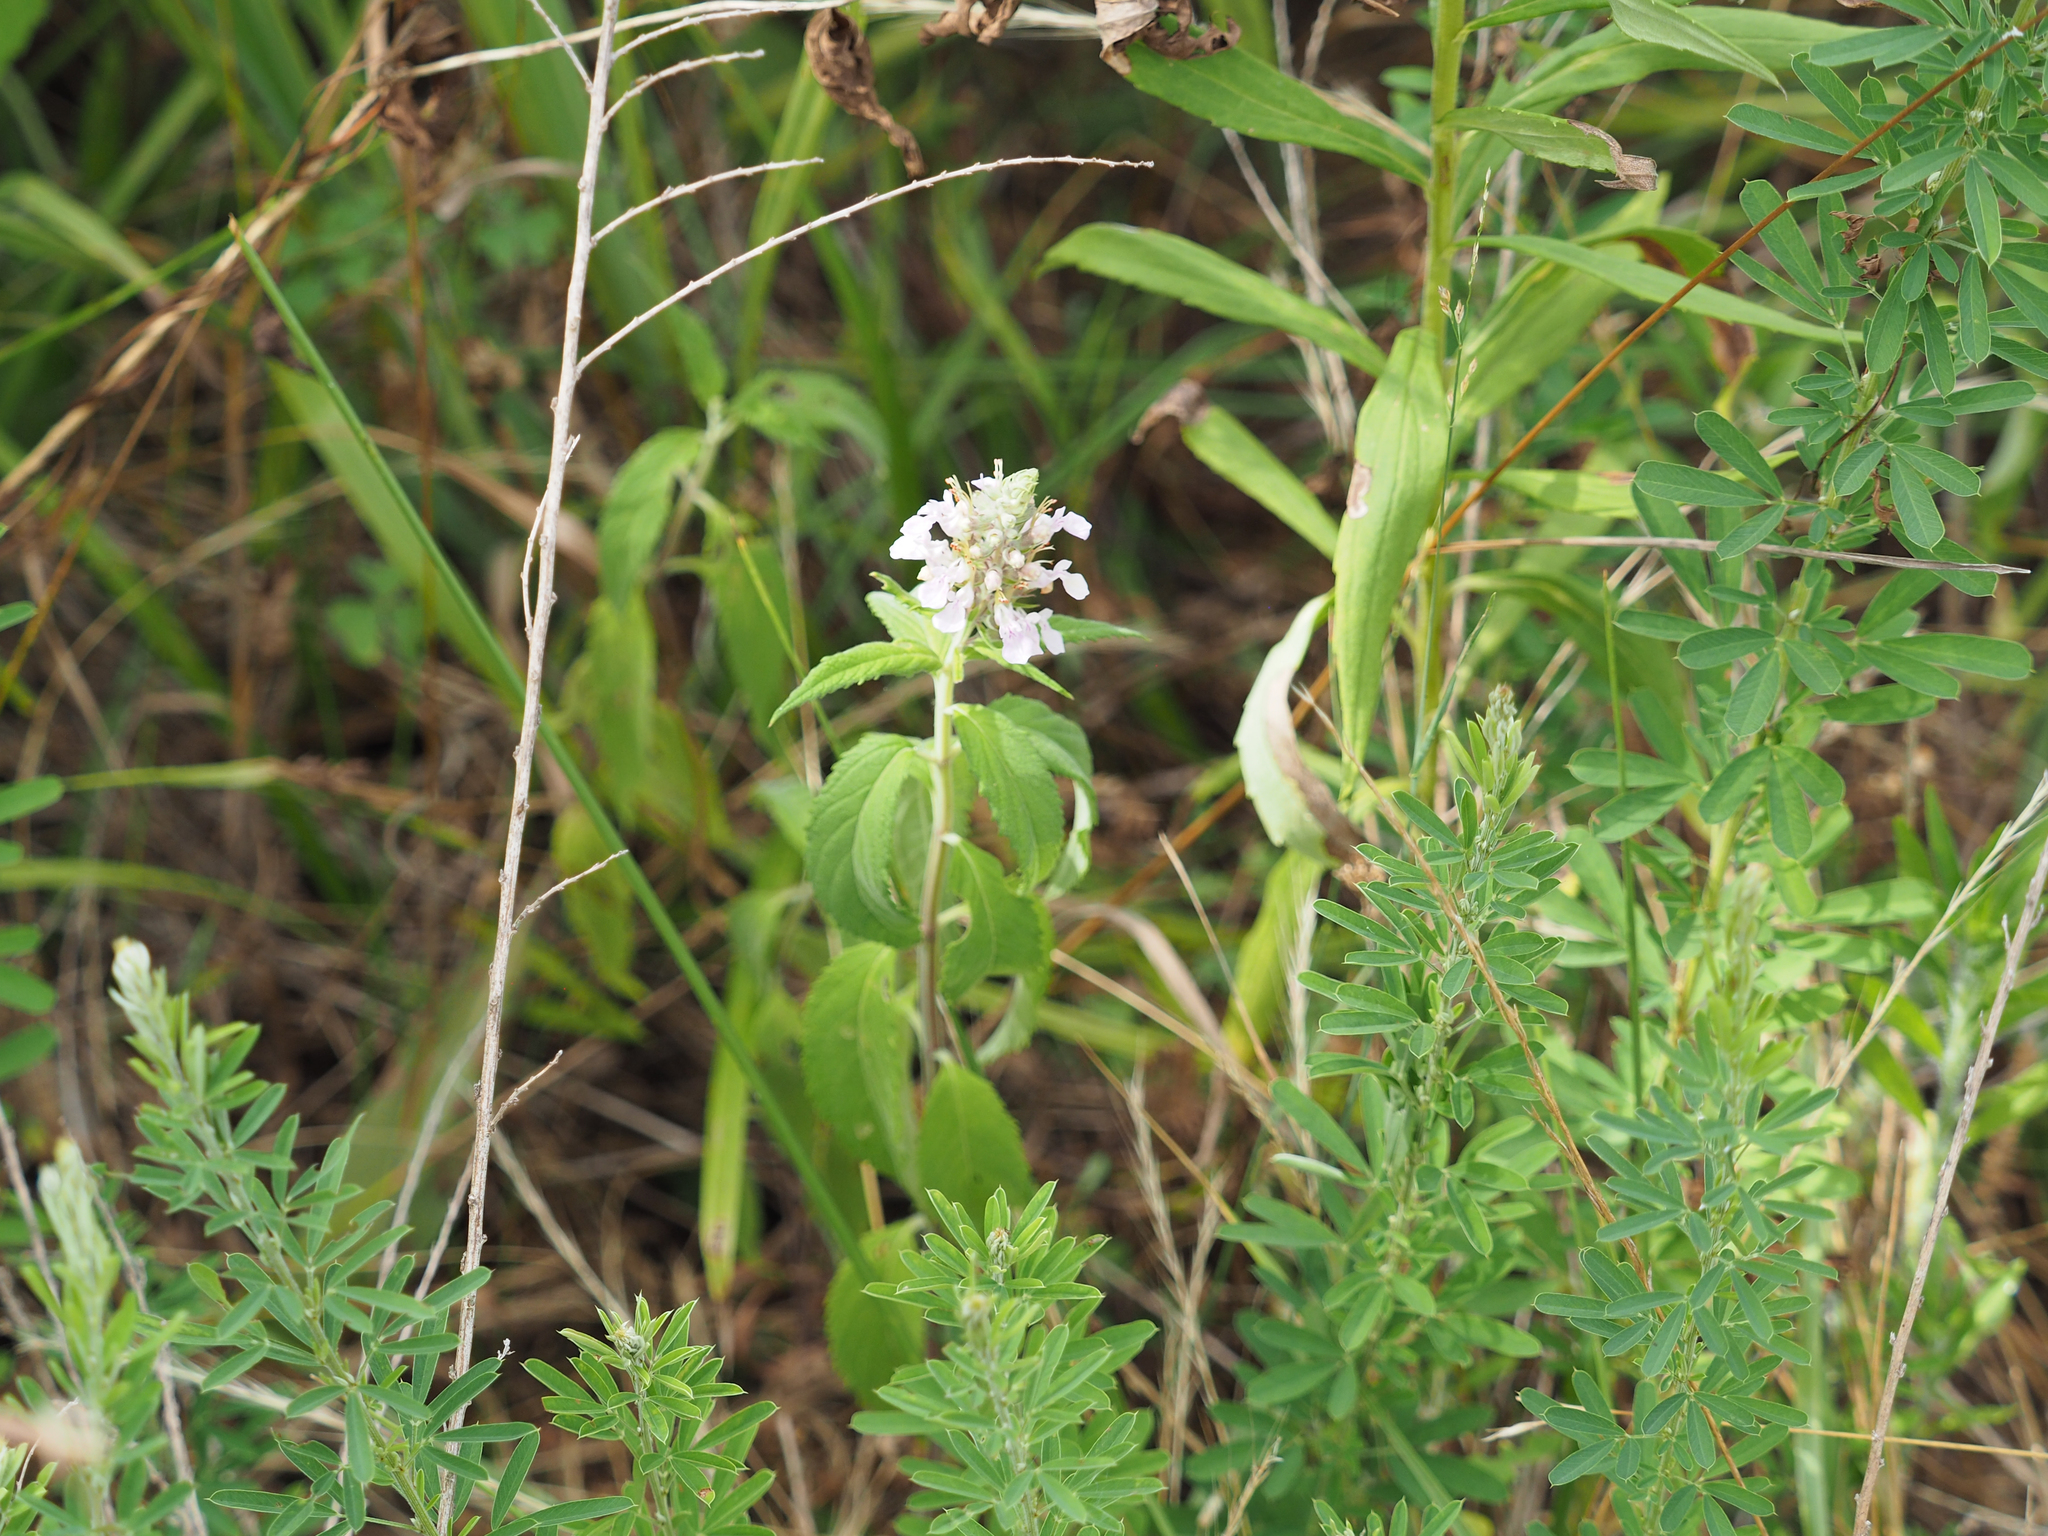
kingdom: Plantae
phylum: Tracheophyta
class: Magnoliopsida
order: Lamiales
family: Lamiaceae
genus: Teucrium
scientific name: Teucrium canadense
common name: American germander
